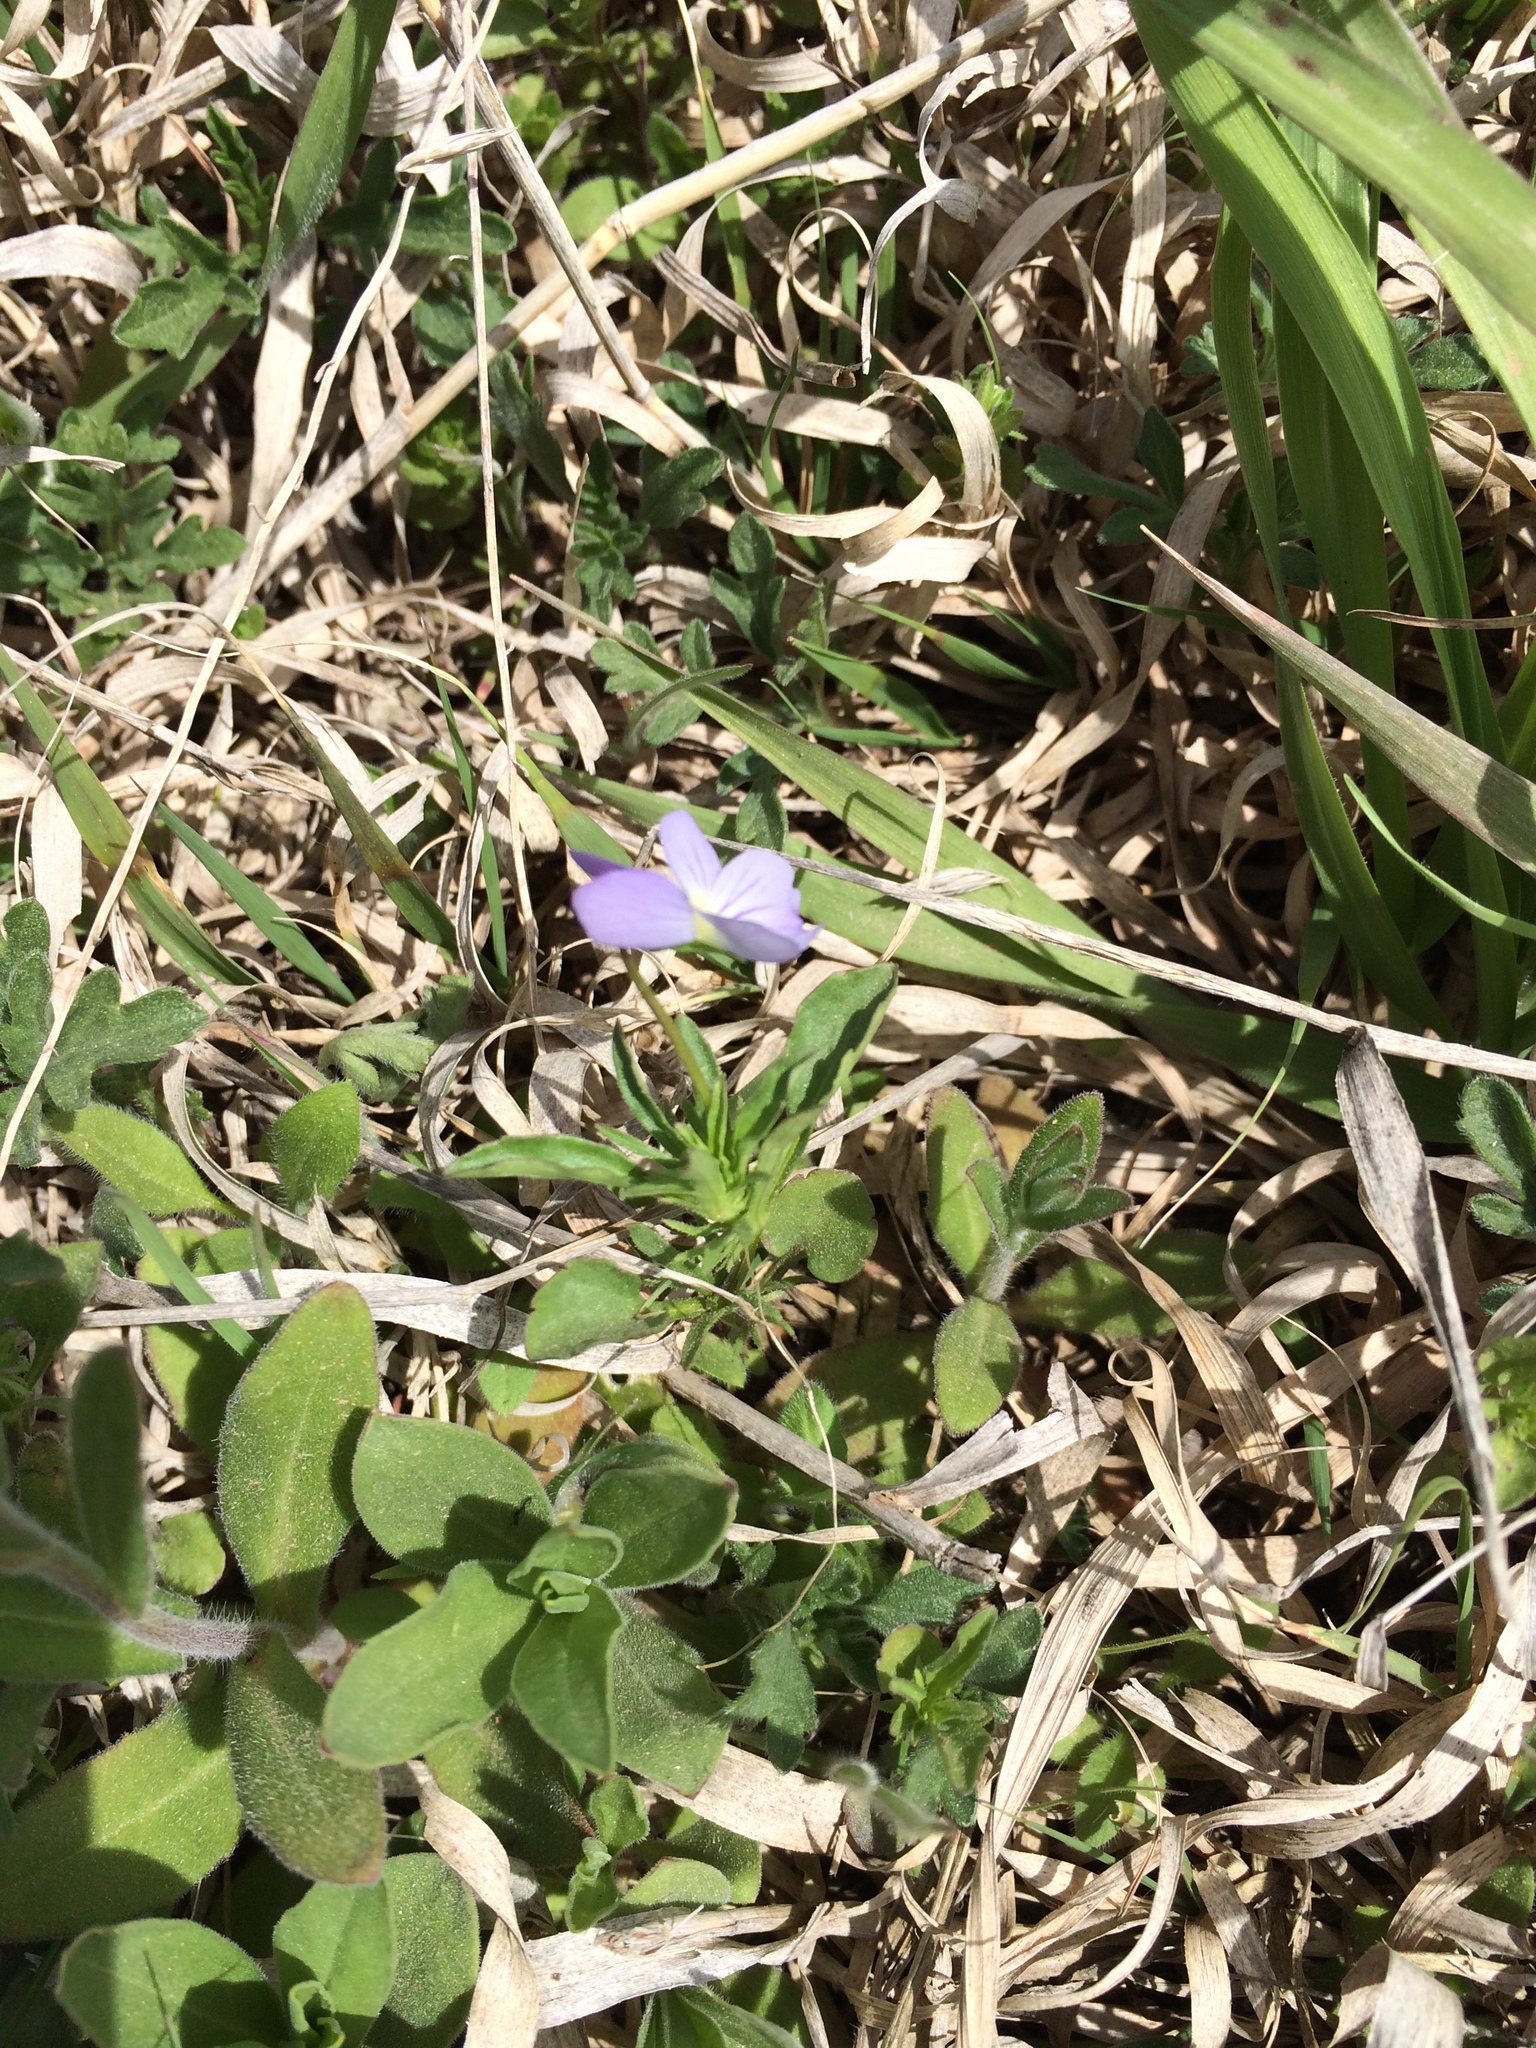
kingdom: Plantae
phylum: Tracheophyta
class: Magnoliopsida
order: Malpighiales
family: Violaceae
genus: Viola
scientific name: Viola rafinesquei
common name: American field pansy
